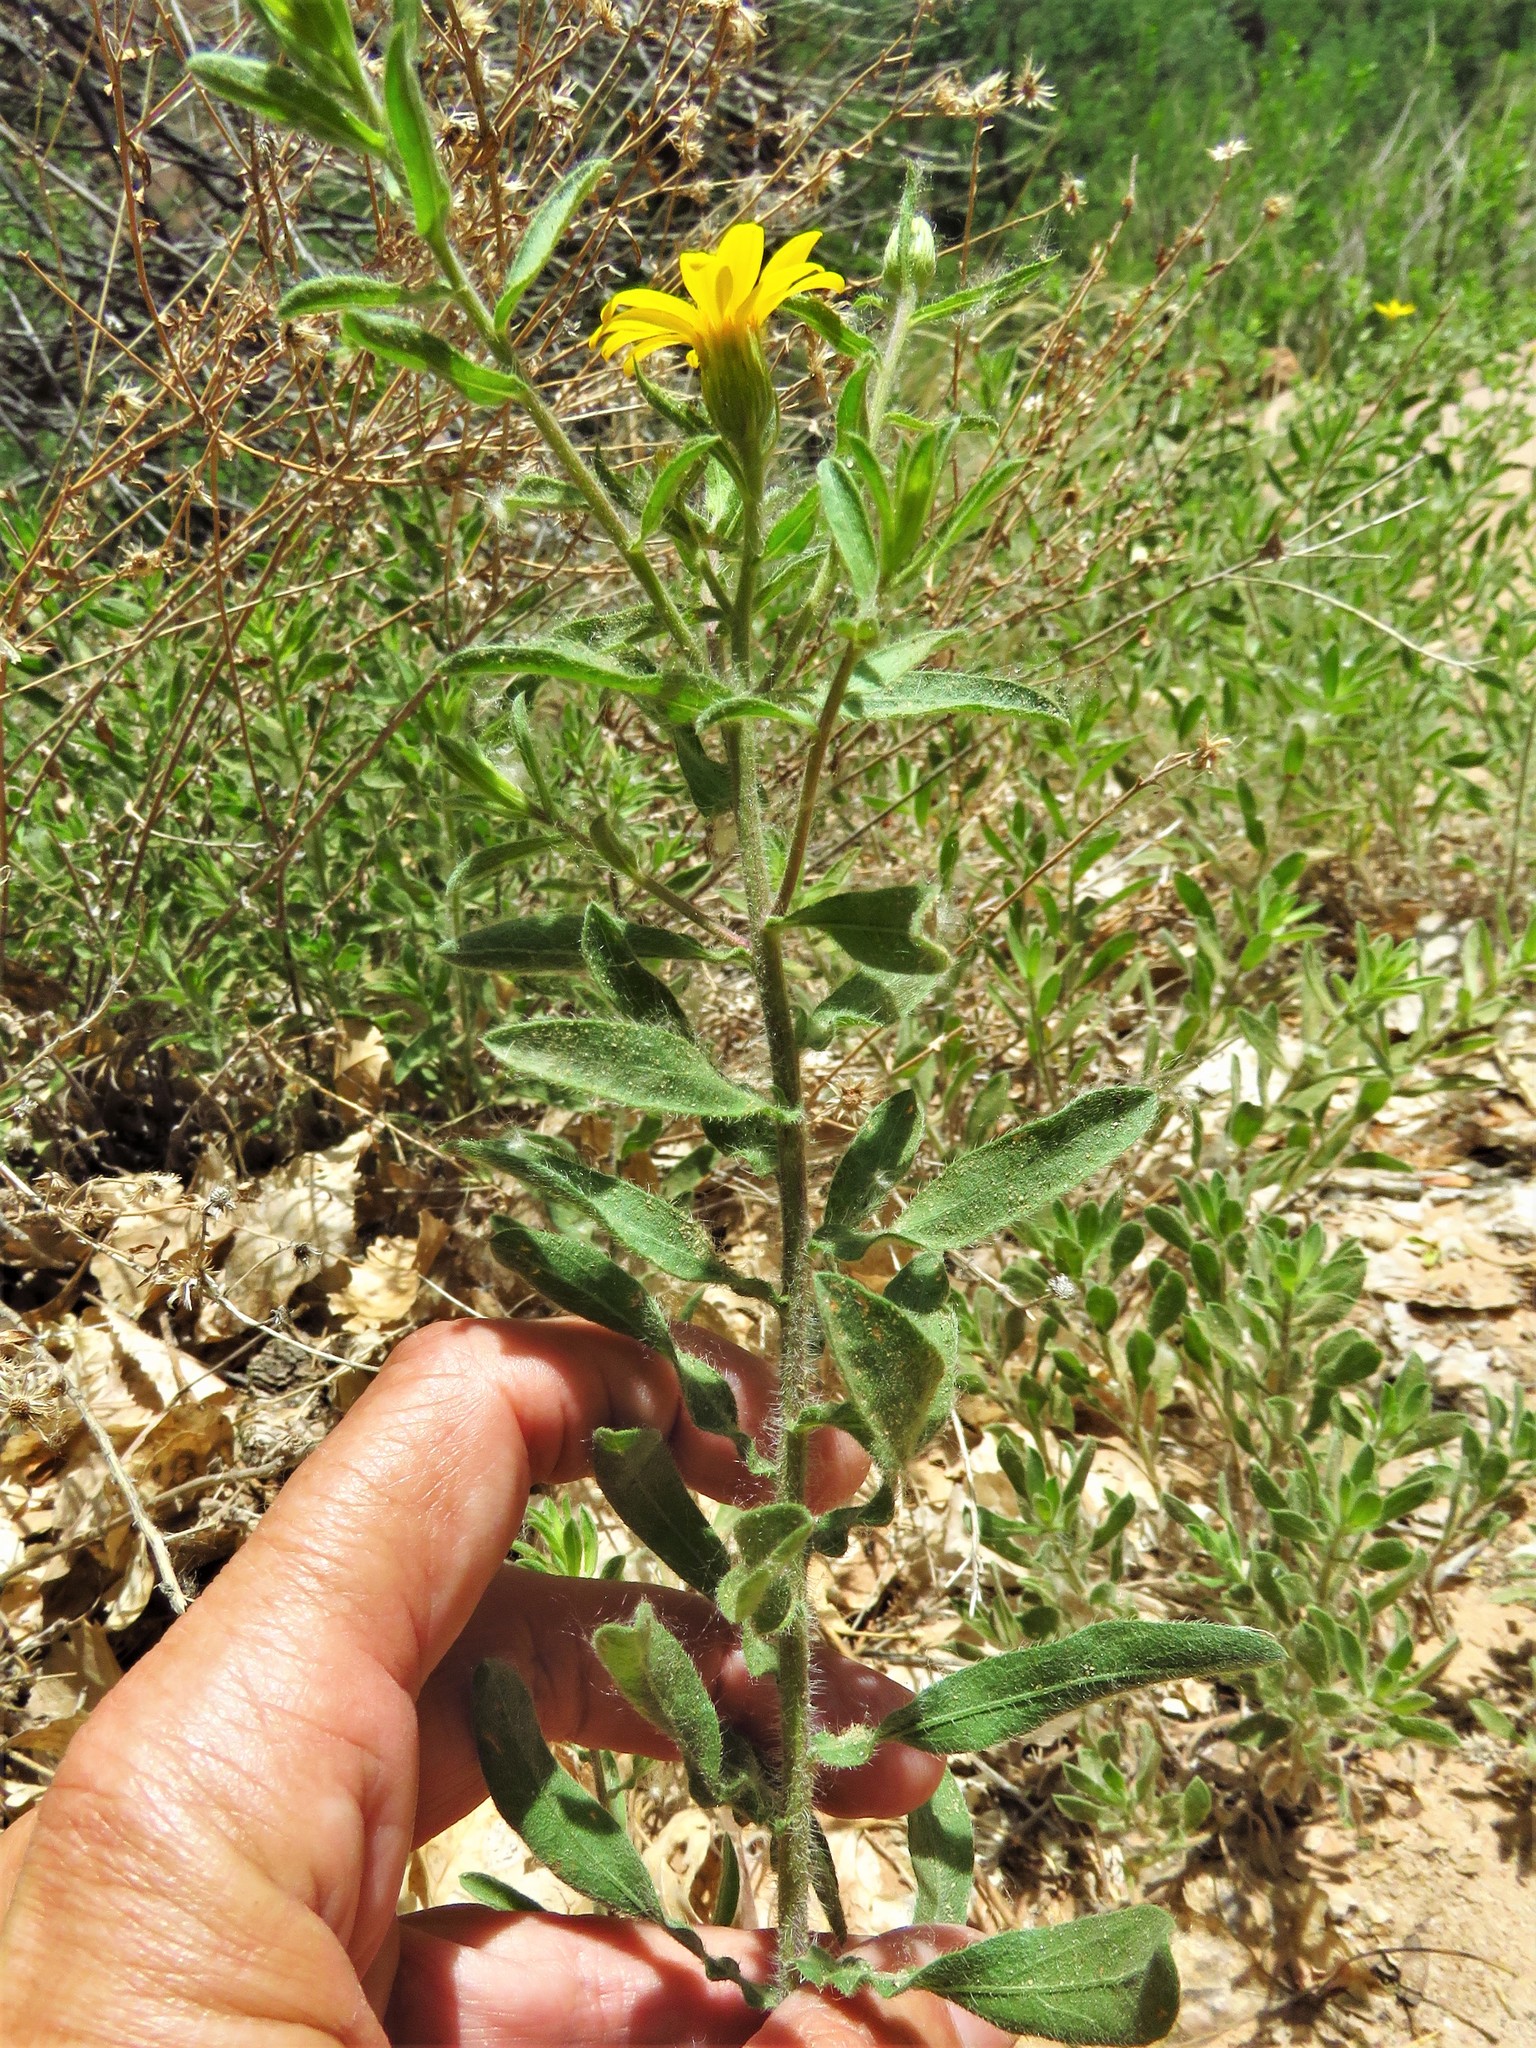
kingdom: Plantae
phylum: Tracheophyta
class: Magnoliopsida
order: Asterales
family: Asteraceae
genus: Heterotheca
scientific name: Heterotheca polothrix
